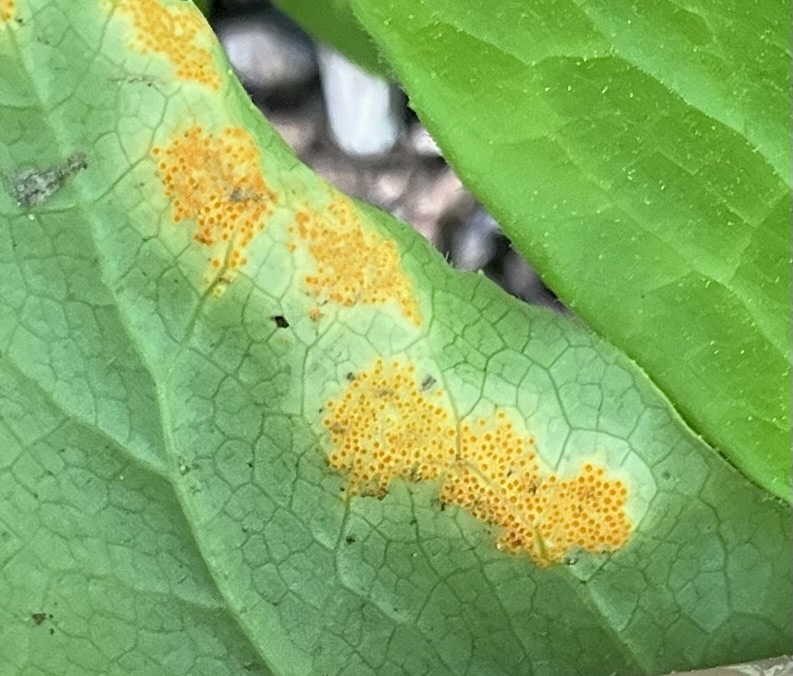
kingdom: Fungi
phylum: Basidiomycota
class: Pucciniomycetes
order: Pucciniales
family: Pucciniaceae
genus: Puccinia
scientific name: Puccinia podophylli
